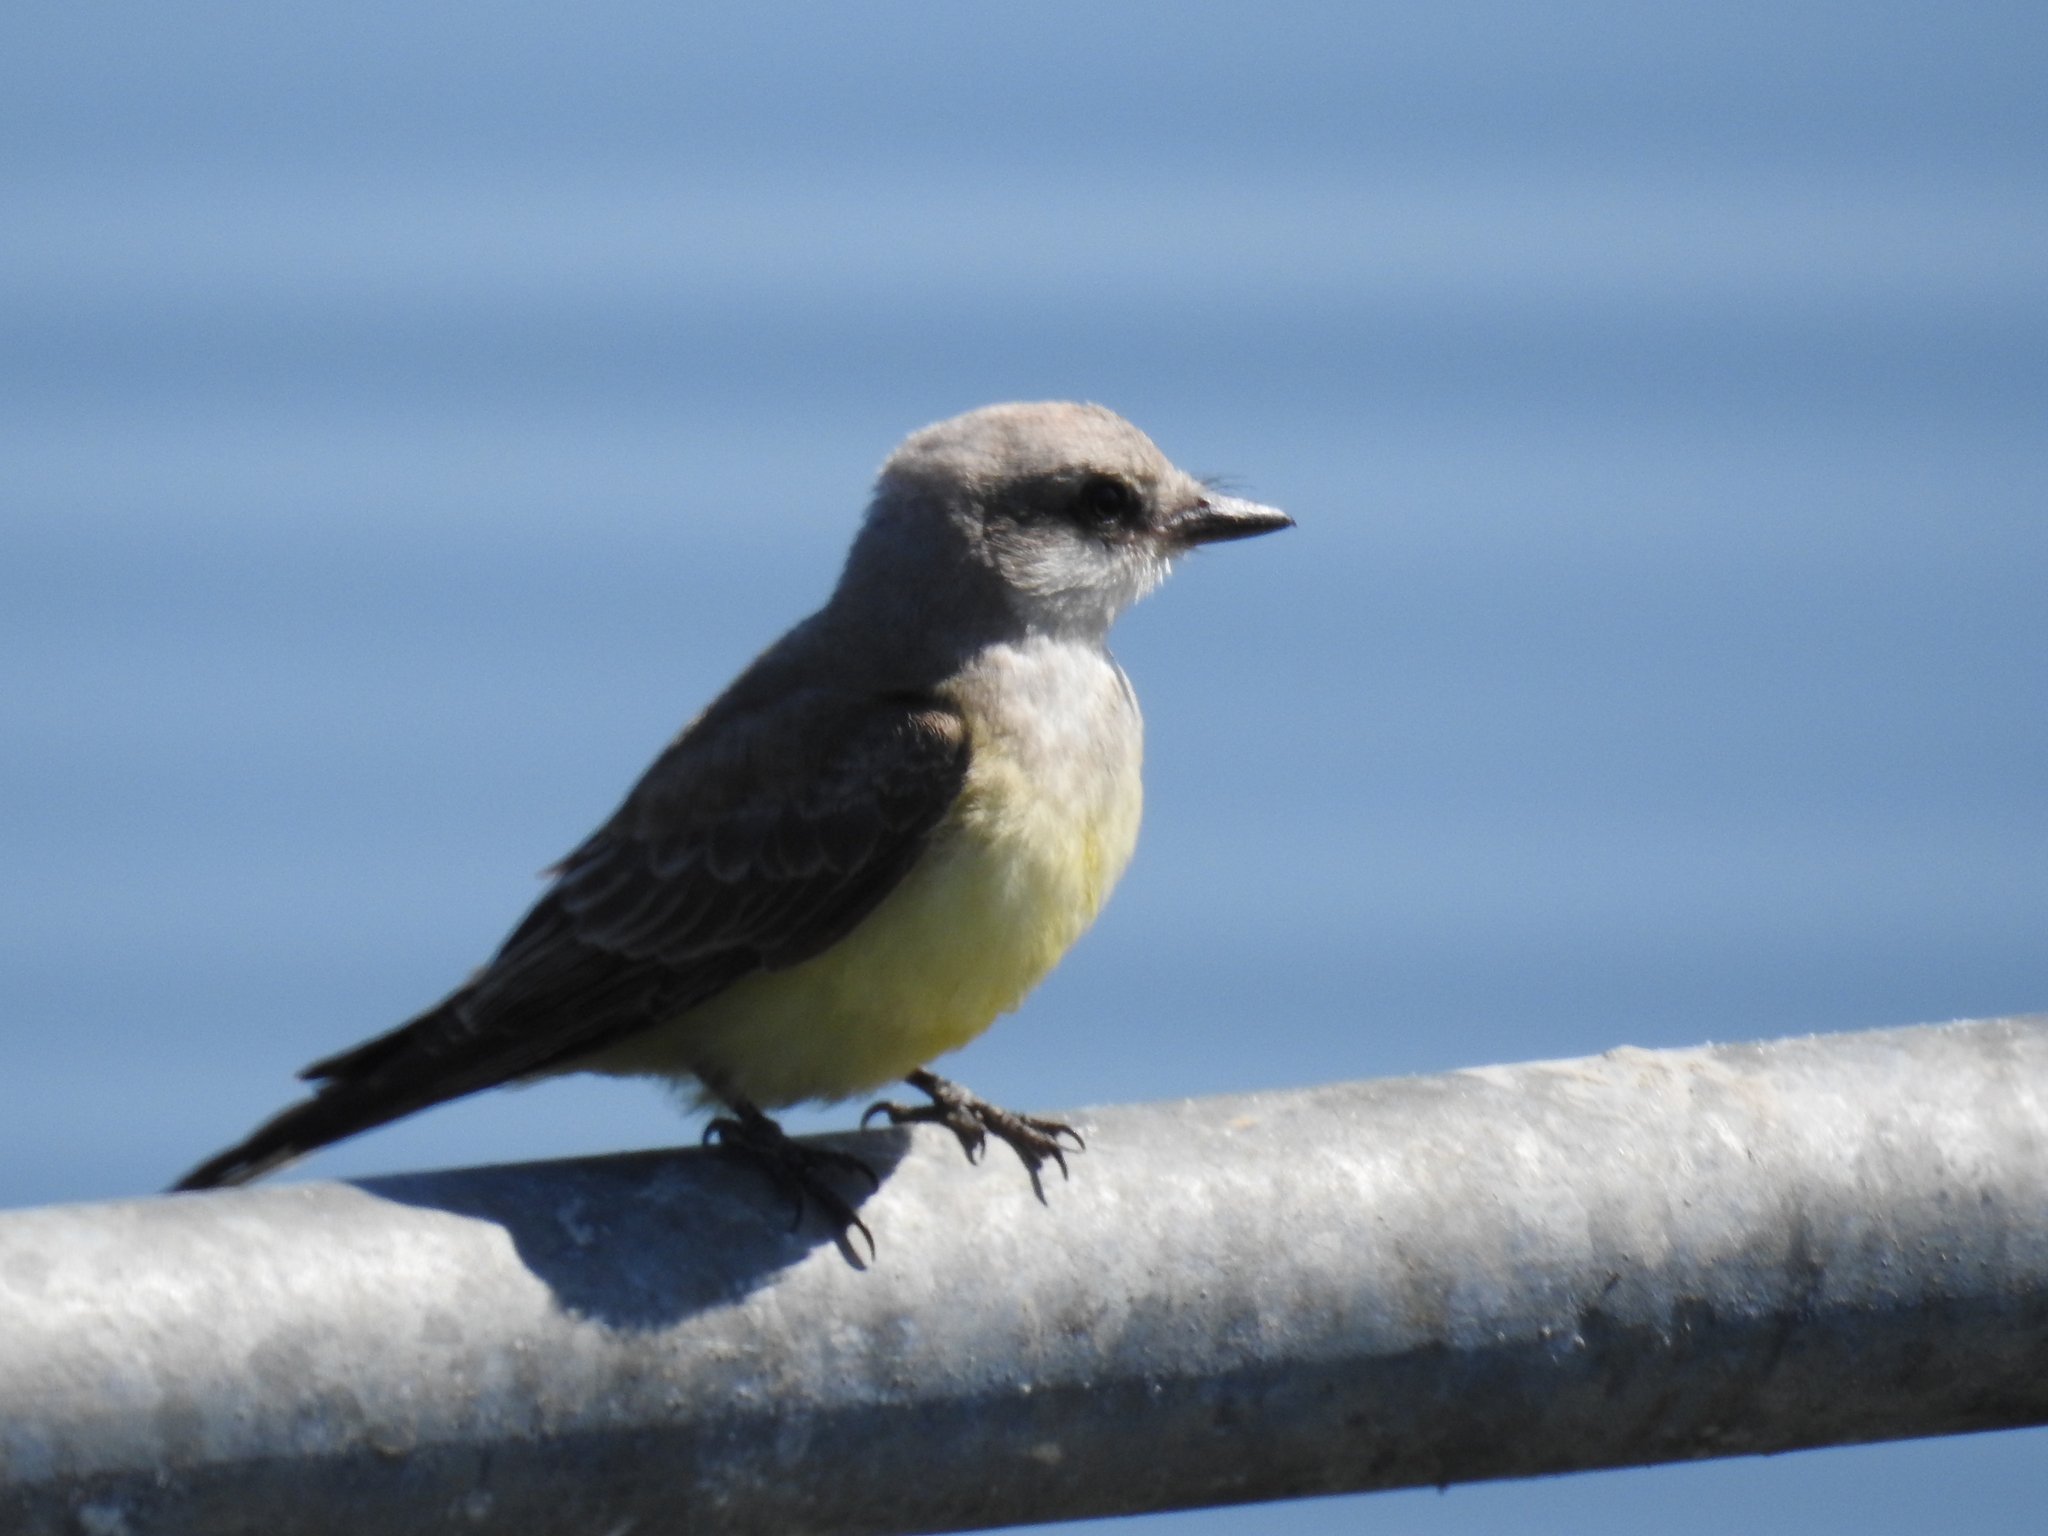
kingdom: Animalia
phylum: Chordata
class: Aves
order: Passeriformes
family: Tyrannidae
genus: Tyrannus
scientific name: Tyrannus verticalis
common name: Western kingbird
